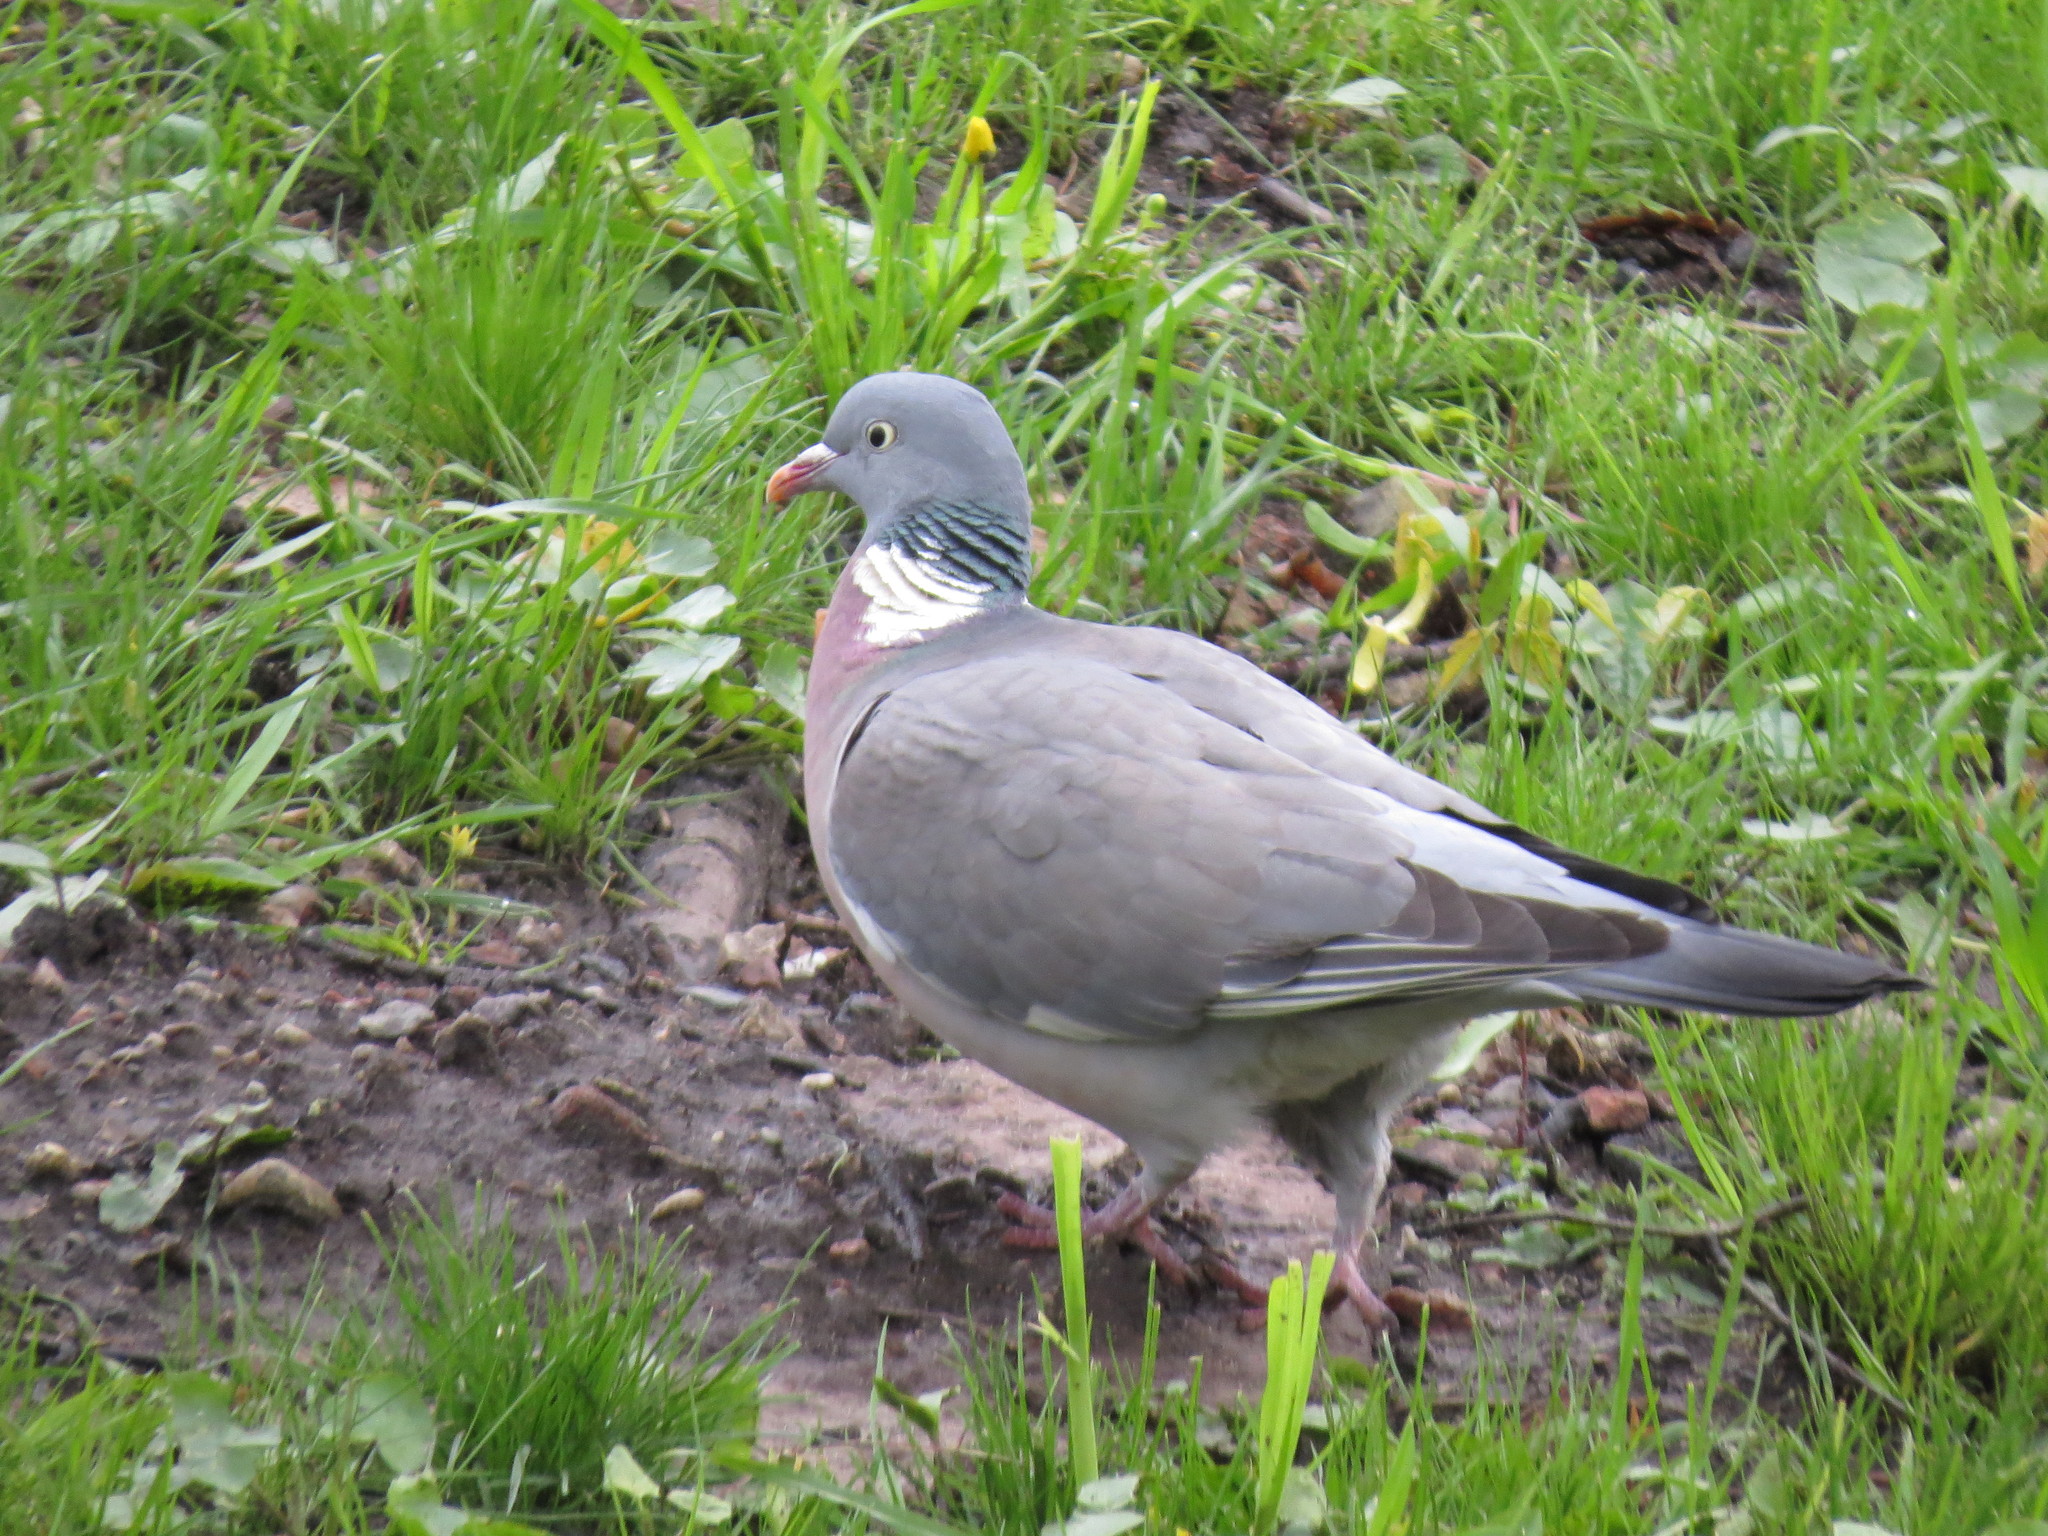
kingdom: Animalia
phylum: Chordata
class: Aves
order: Columbiformes
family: Columbidae
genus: Columba
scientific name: Columba palumbus
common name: Common wood pigeon
